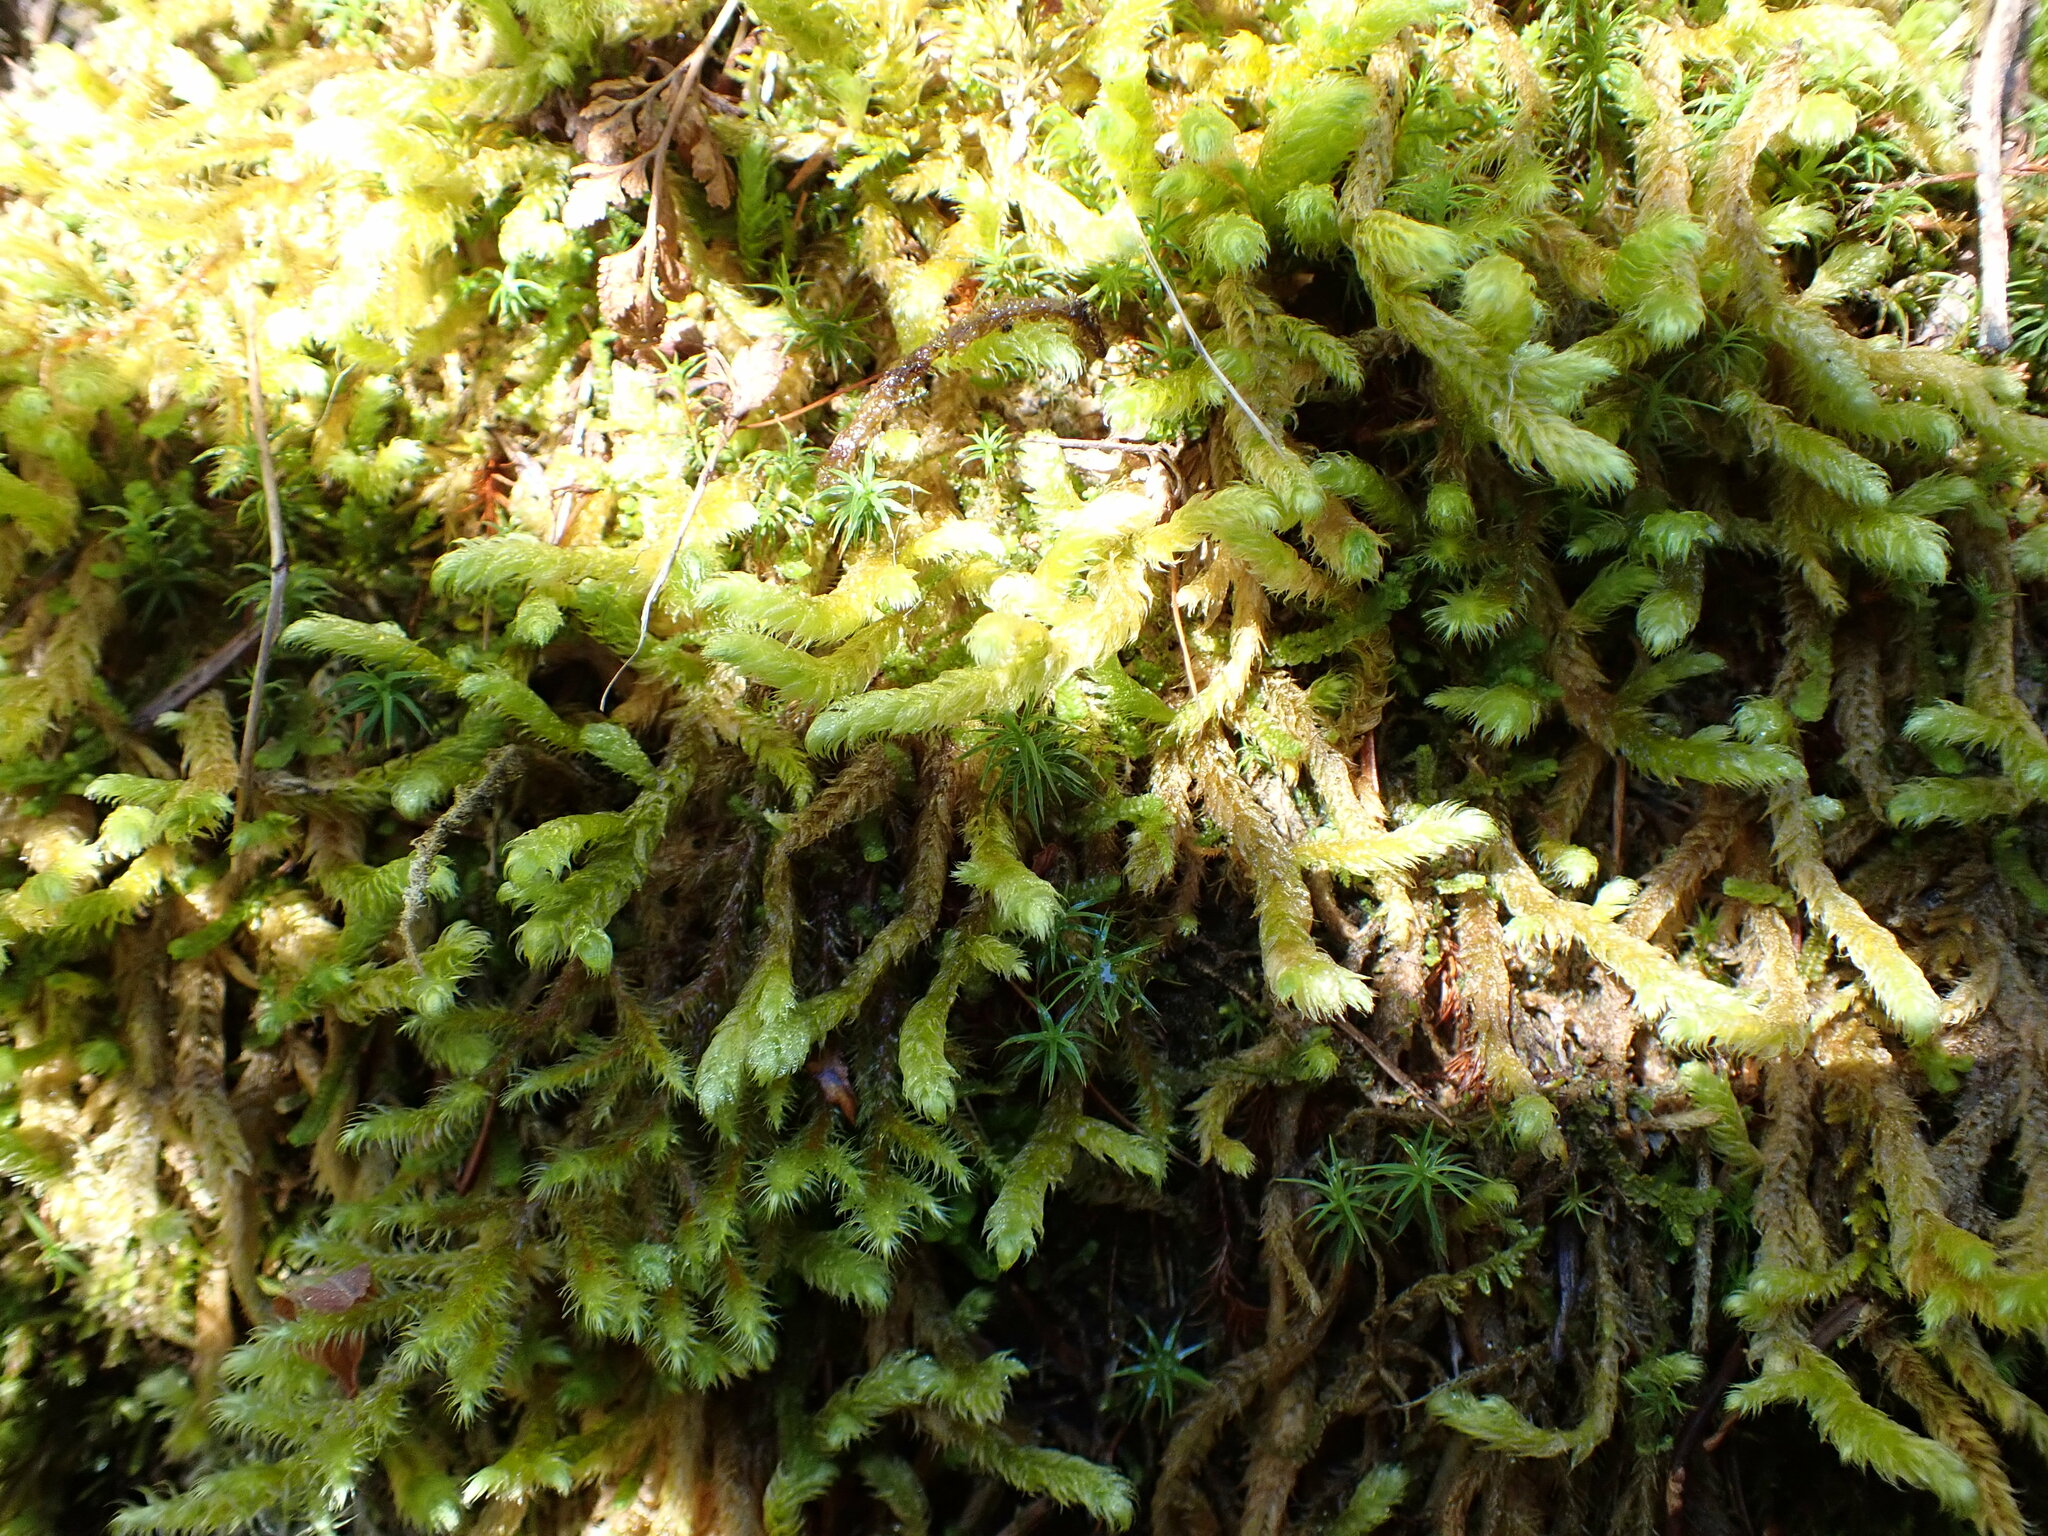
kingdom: Plantae
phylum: Bryophyta
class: Bryopsida
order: Hypnales
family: Hylocomiaceae
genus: Rhytidiopsis
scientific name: Rhytidiopsis robusta
